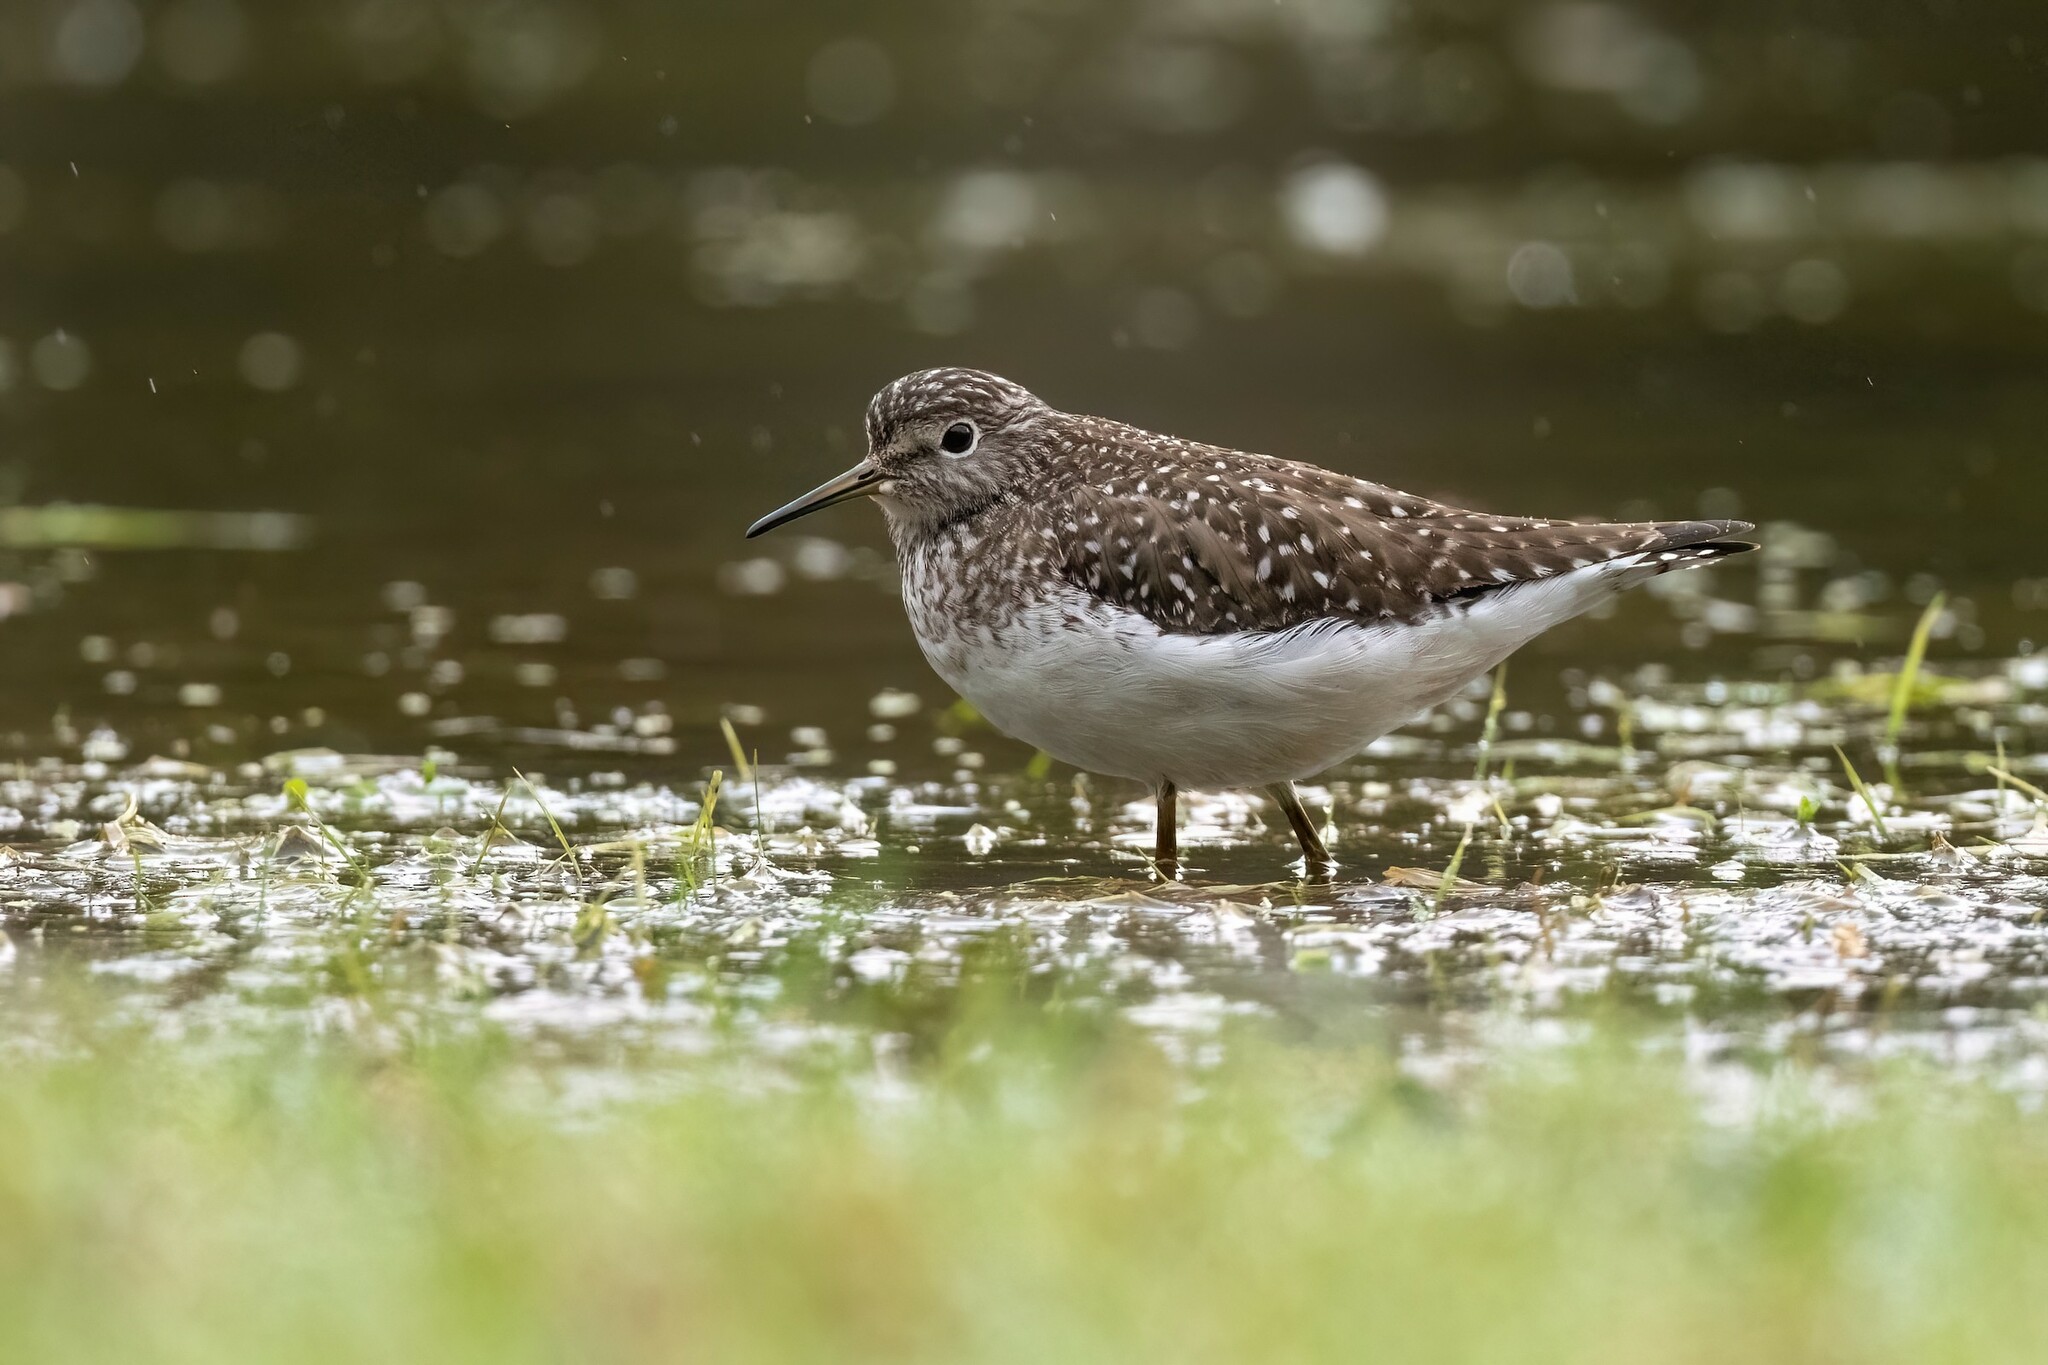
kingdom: Animalia
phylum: Chordata
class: Aves
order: Charadriiformes
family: Scolopacidae
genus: Tringa
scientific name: Tringa solitaria
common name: Solitary sandpiper
